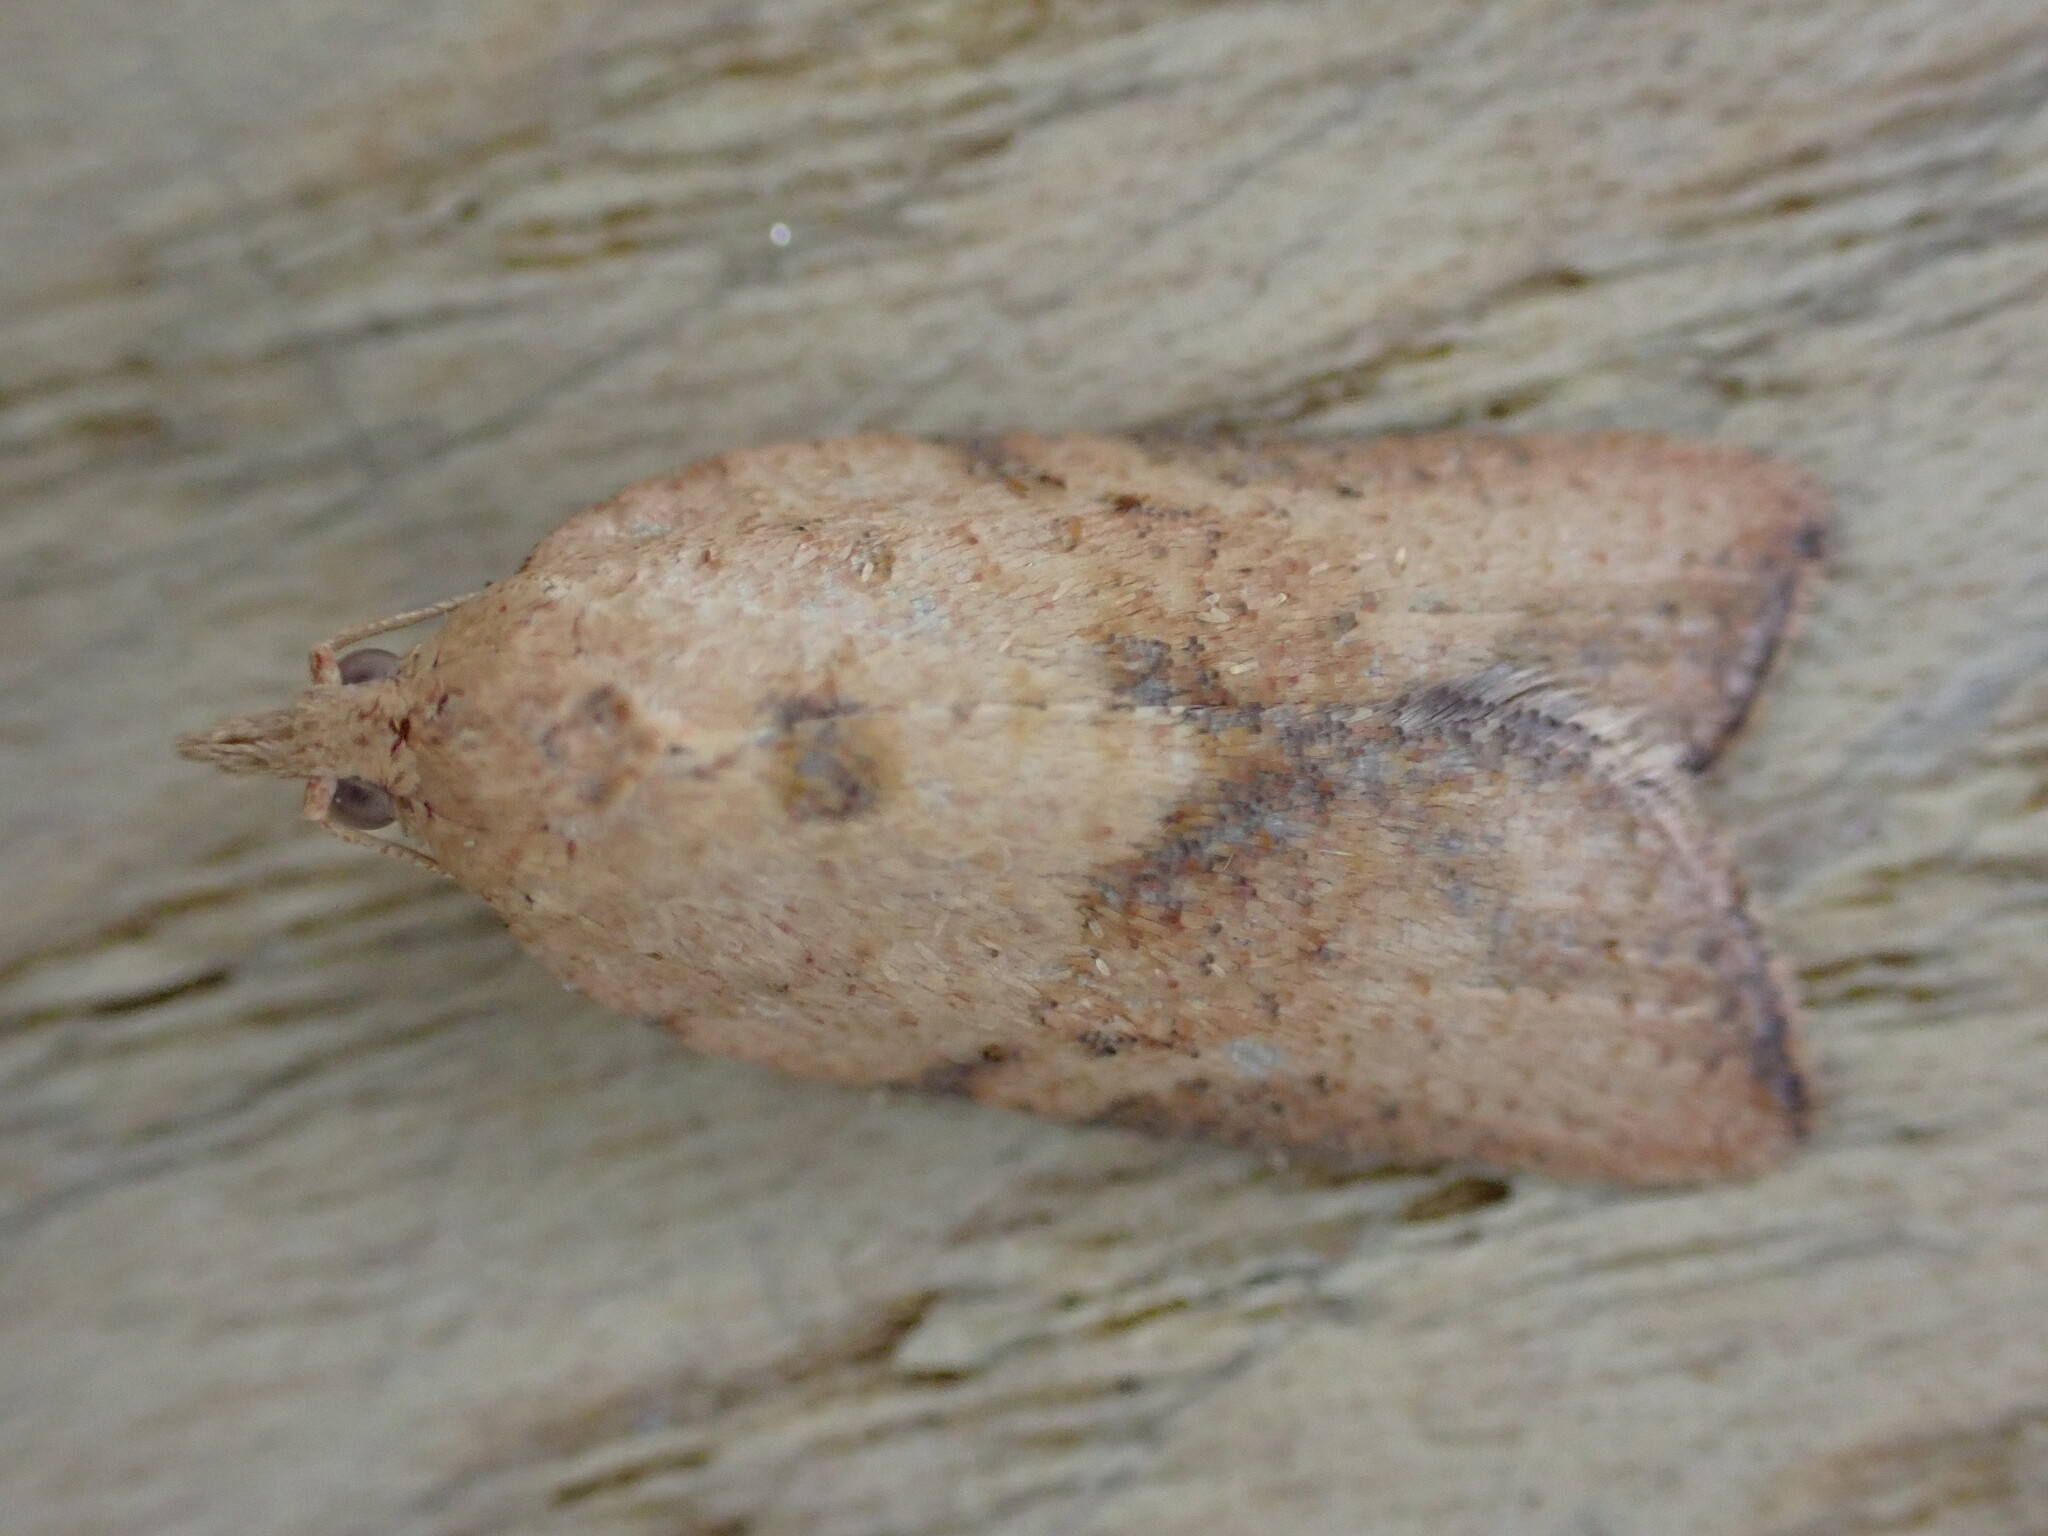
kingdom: Animalia
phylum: Arthropoda
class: Insecta
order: Lepidoptera
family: Tortricidae
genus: Epiphyas
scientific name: Epiphyas postvittana
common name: Light brown apple moth
